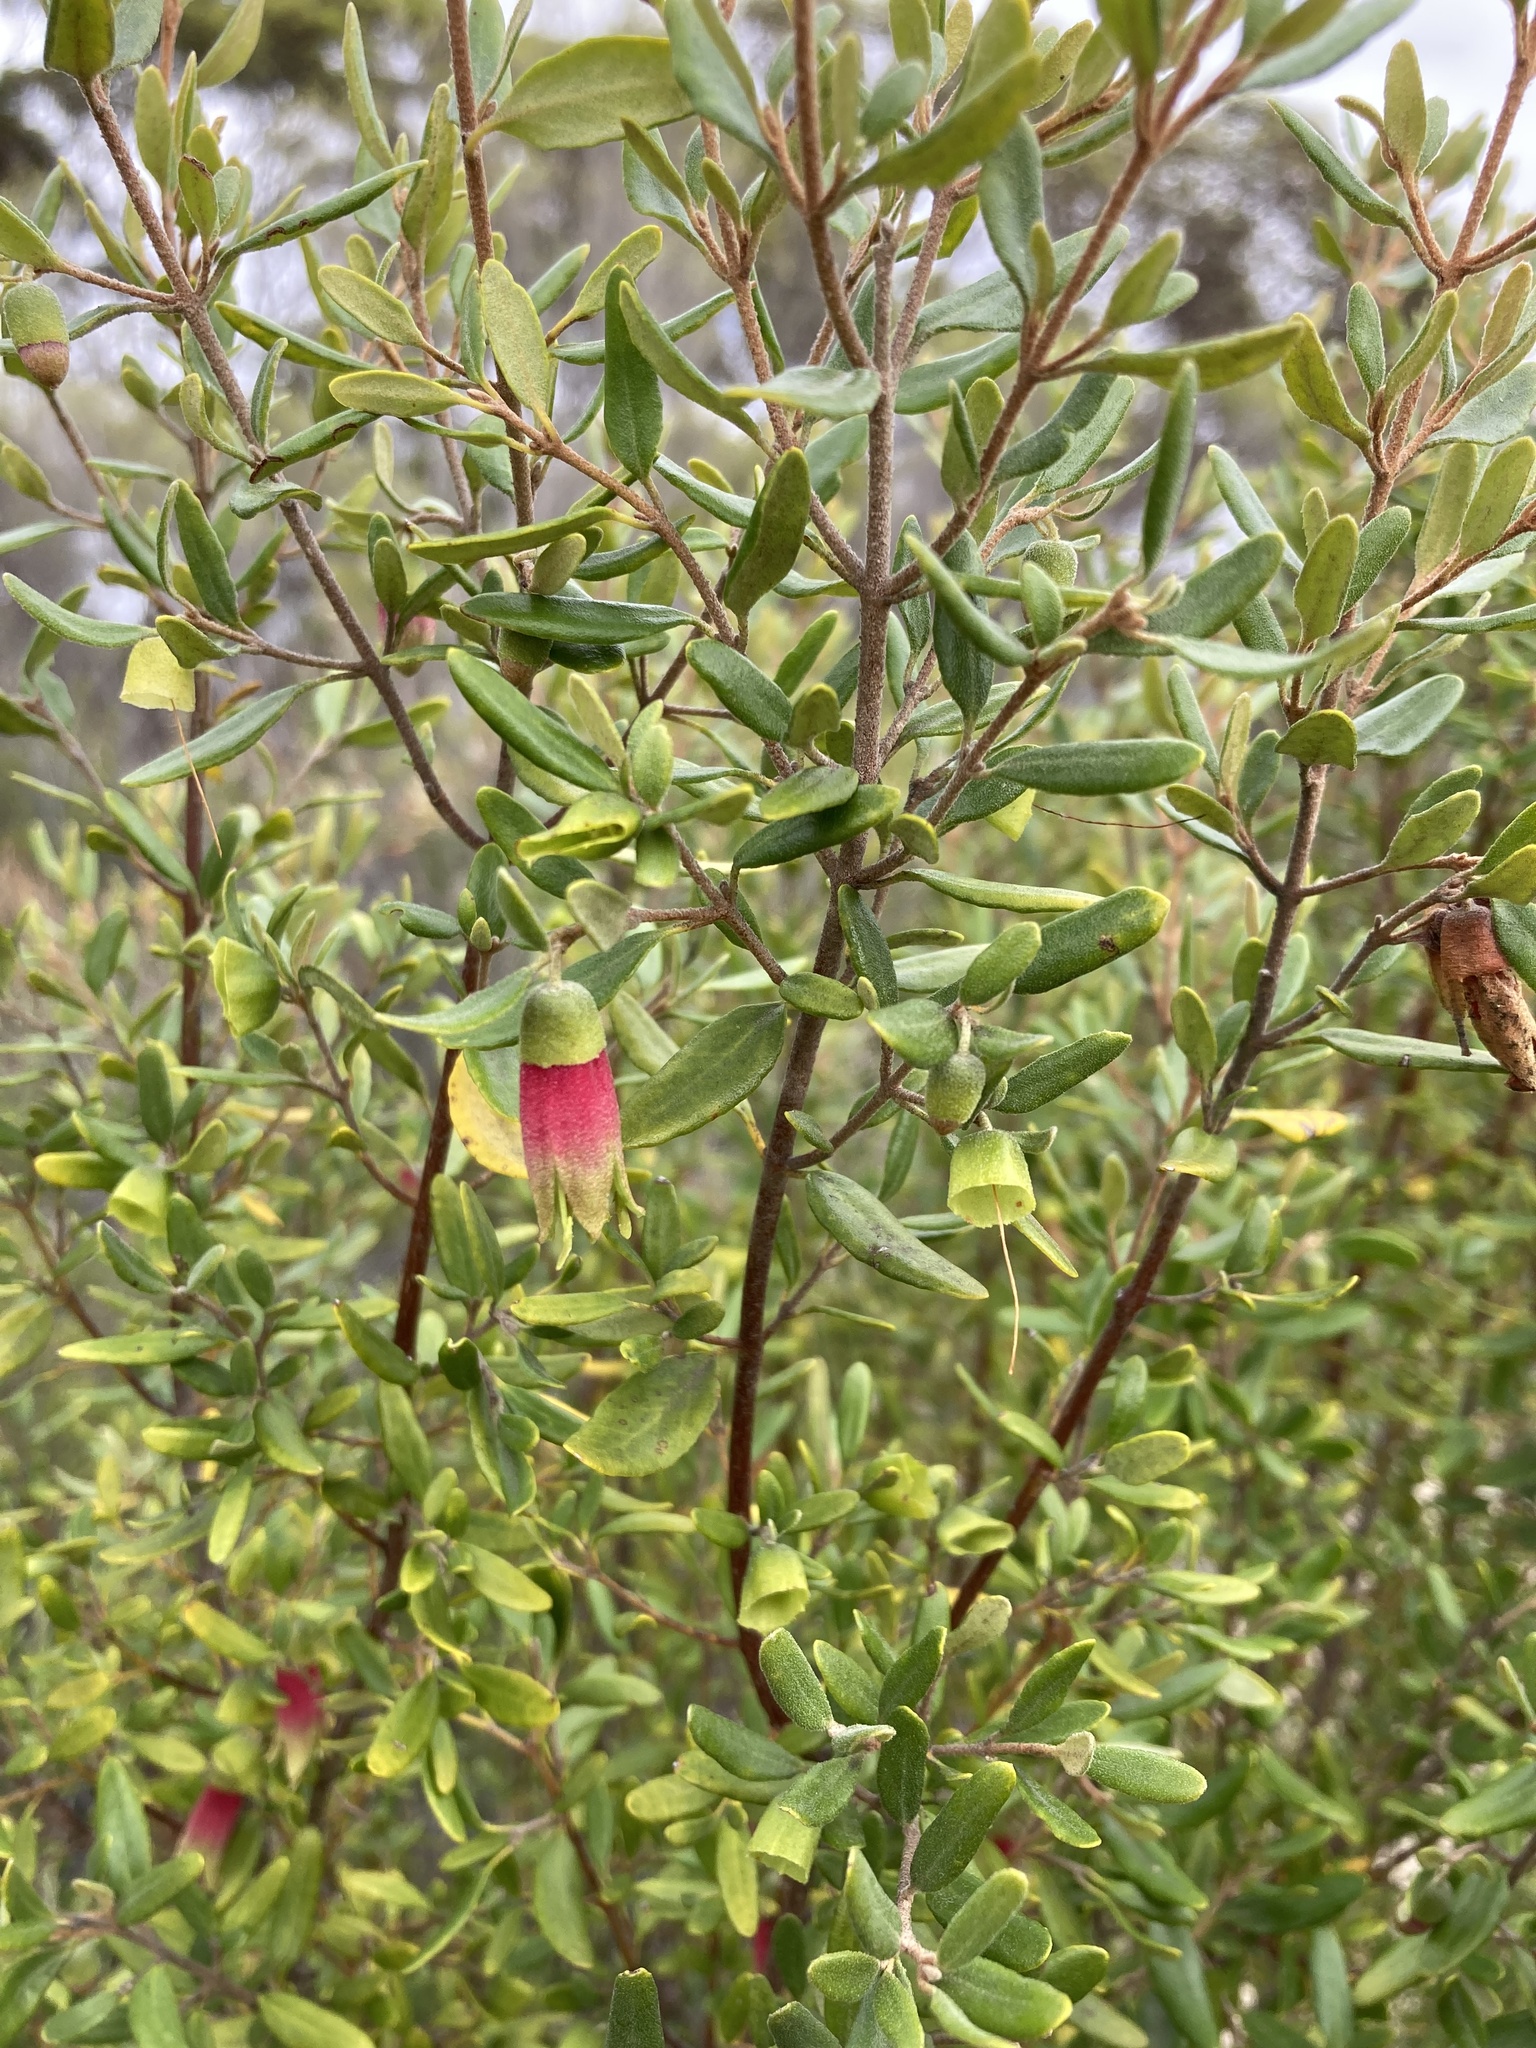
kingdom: Plantae
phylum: Tracheophyta
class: Magnoliopsida
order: Sapindales
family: Rutaceae
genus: Correa
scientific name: Correa glabra
